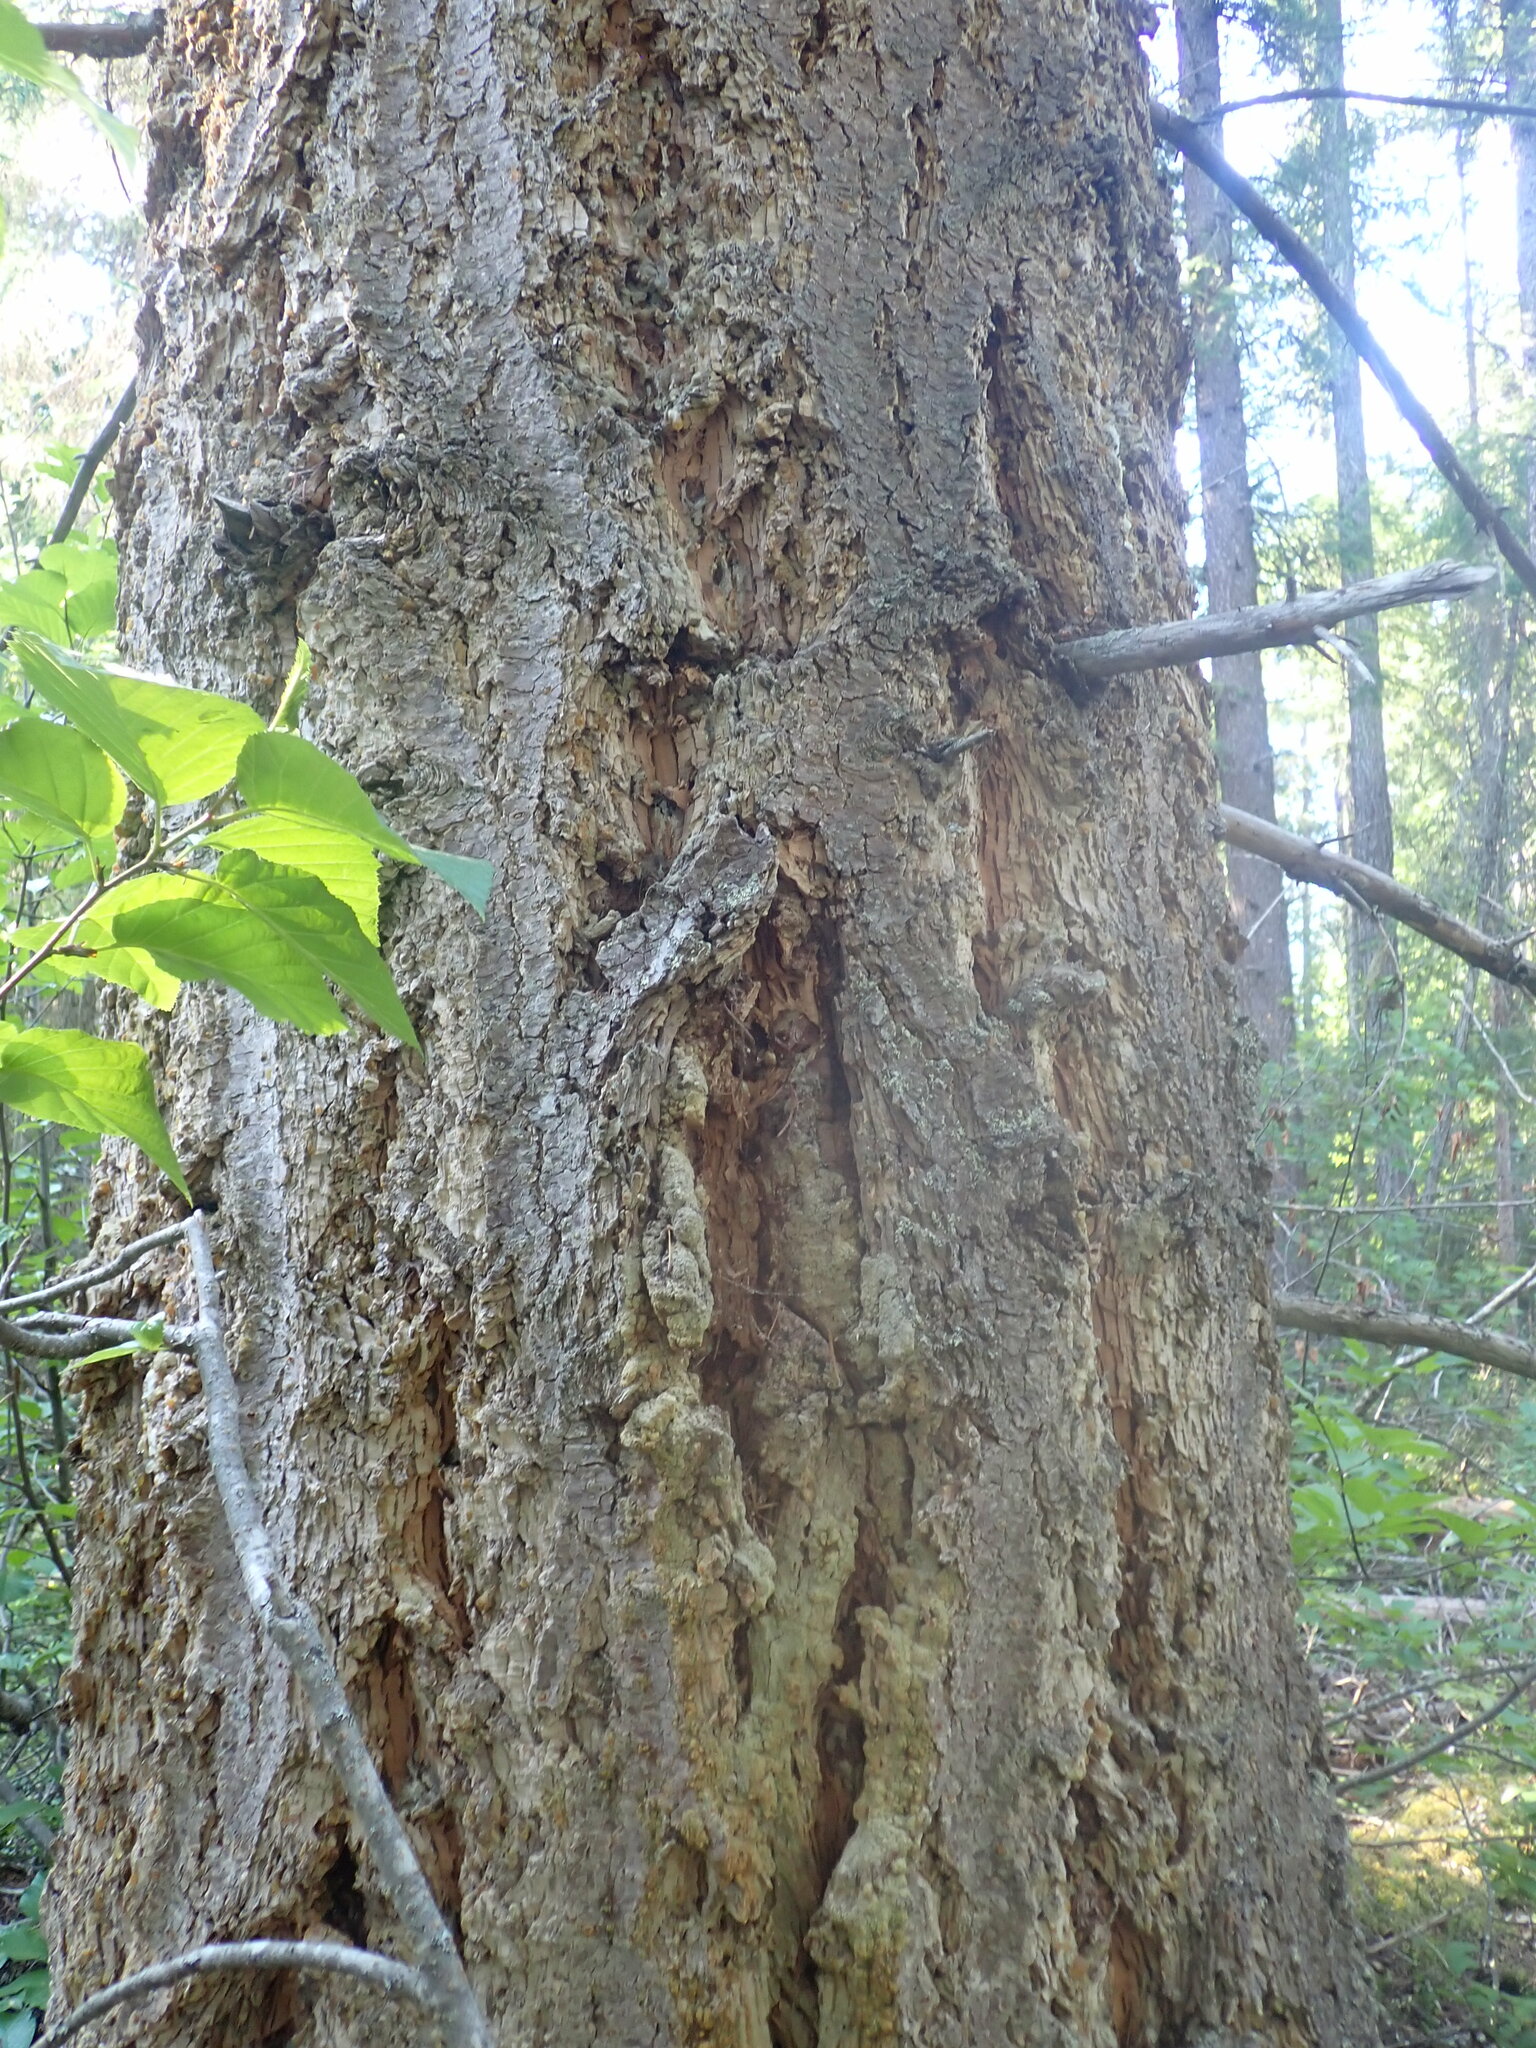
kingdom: Plantae
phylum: Tracheophyta
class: Pinopsida
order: Pinales
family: Pinaceae
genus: Pseudotsuga
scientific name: Pseudotsuga menziesii
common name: Douglas fir
